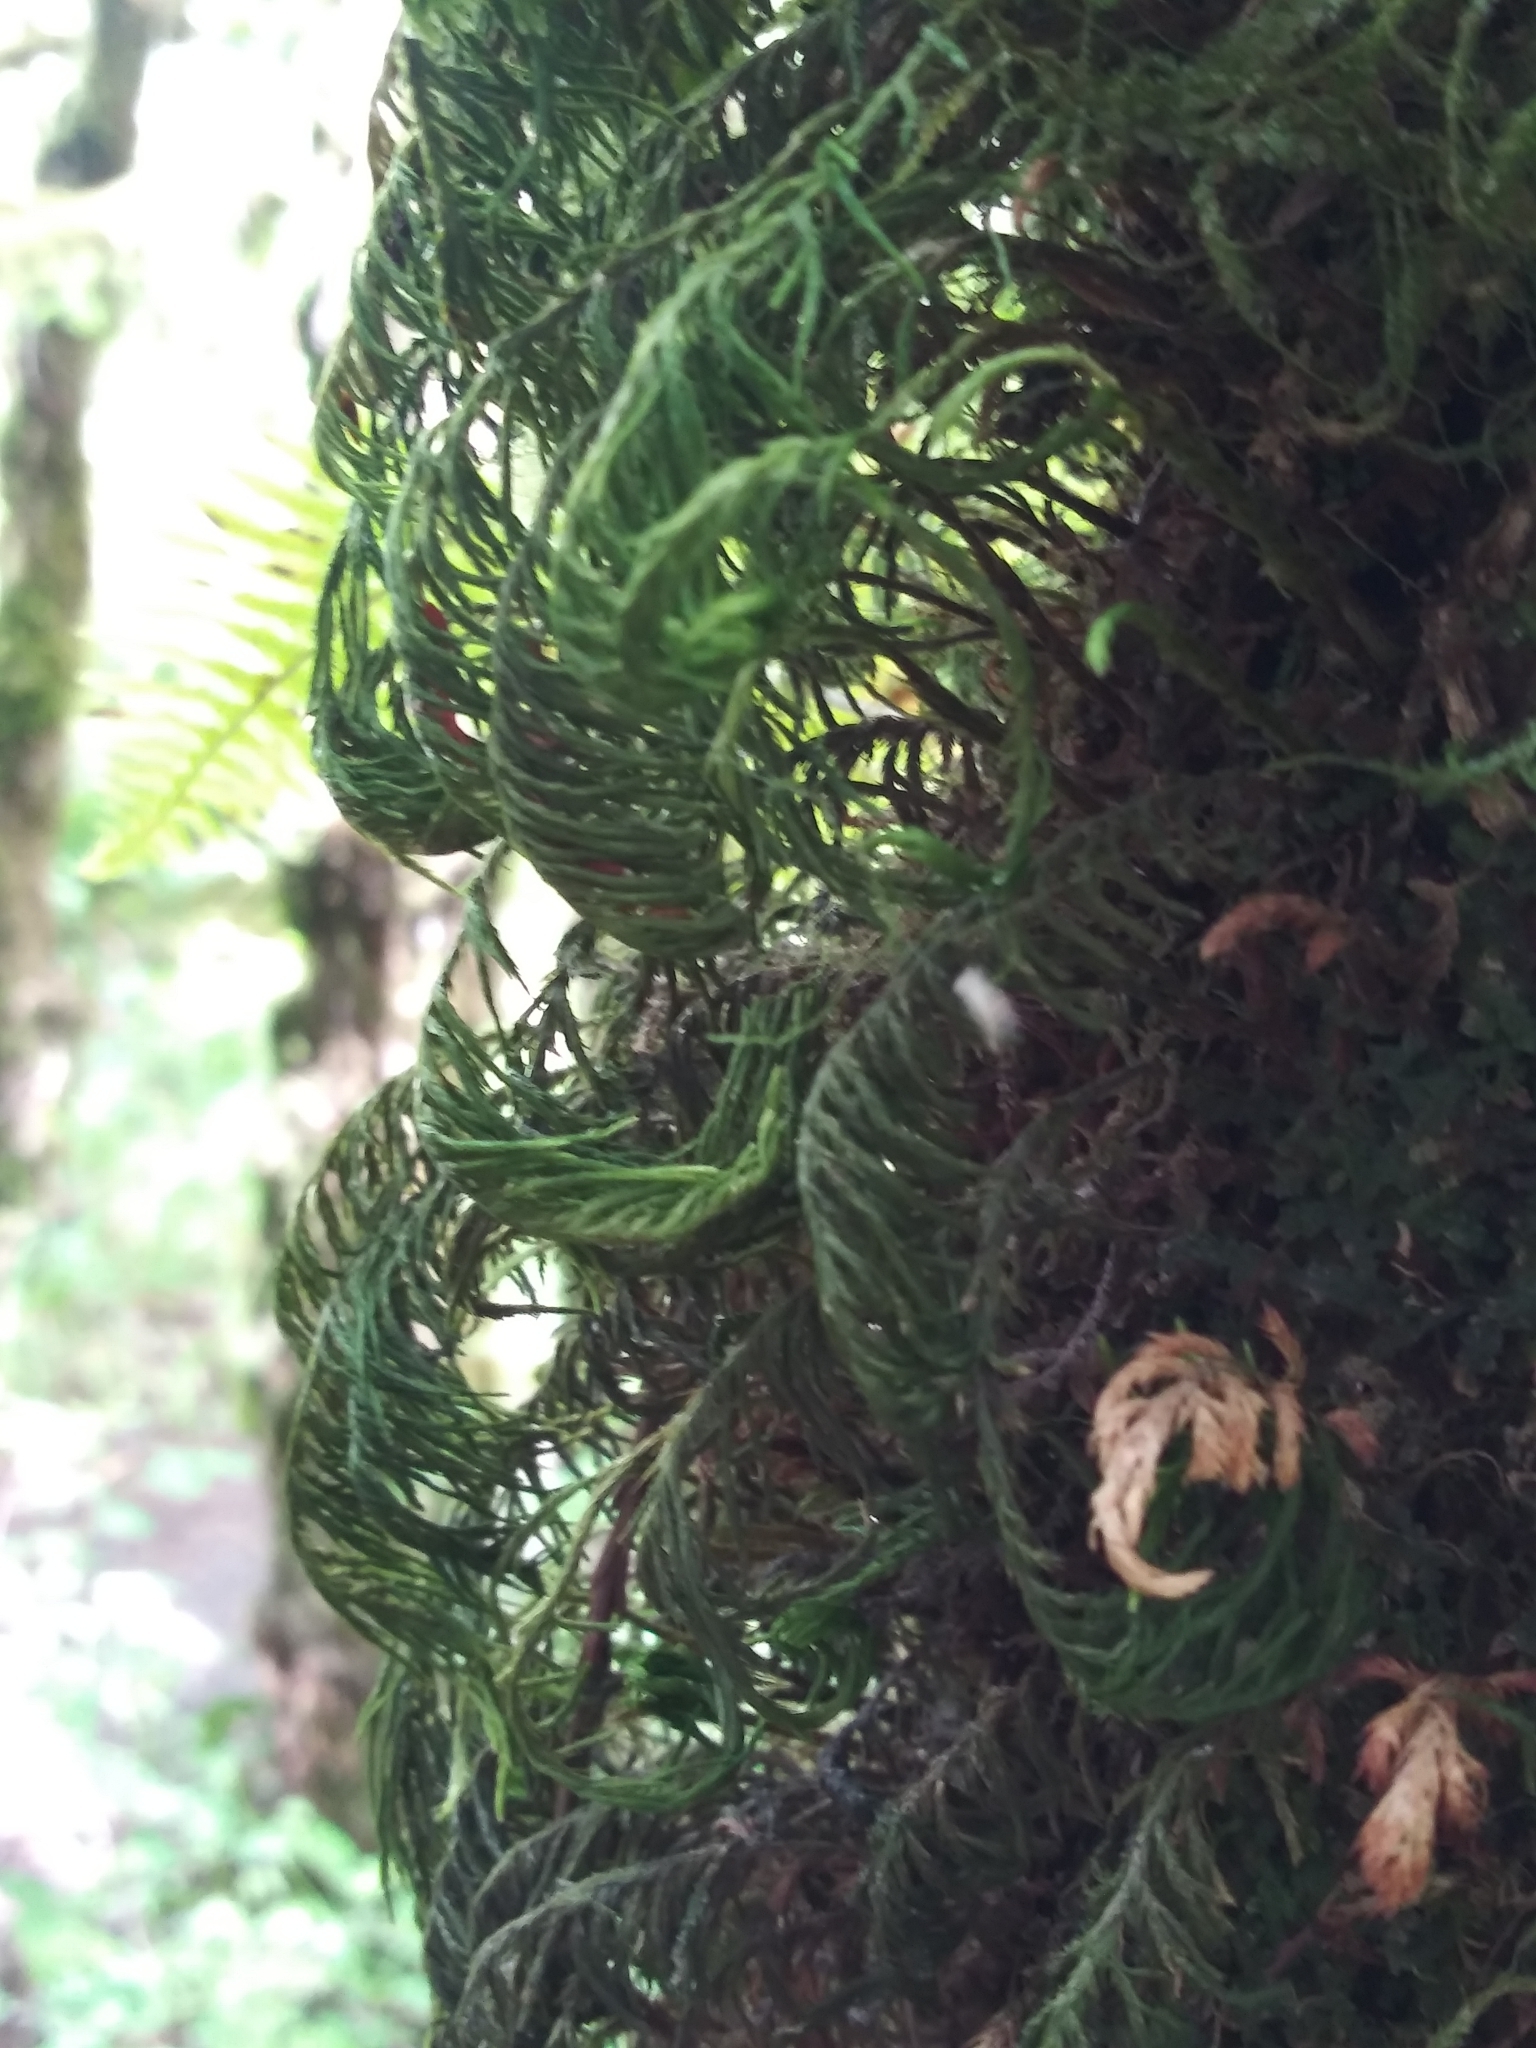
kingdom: Plantae
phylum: Bryophyta
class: Bryopsida
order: Hypnales
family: Cryphaeaceae
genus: Dendroalsia
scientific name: Dendroalsia abietina
